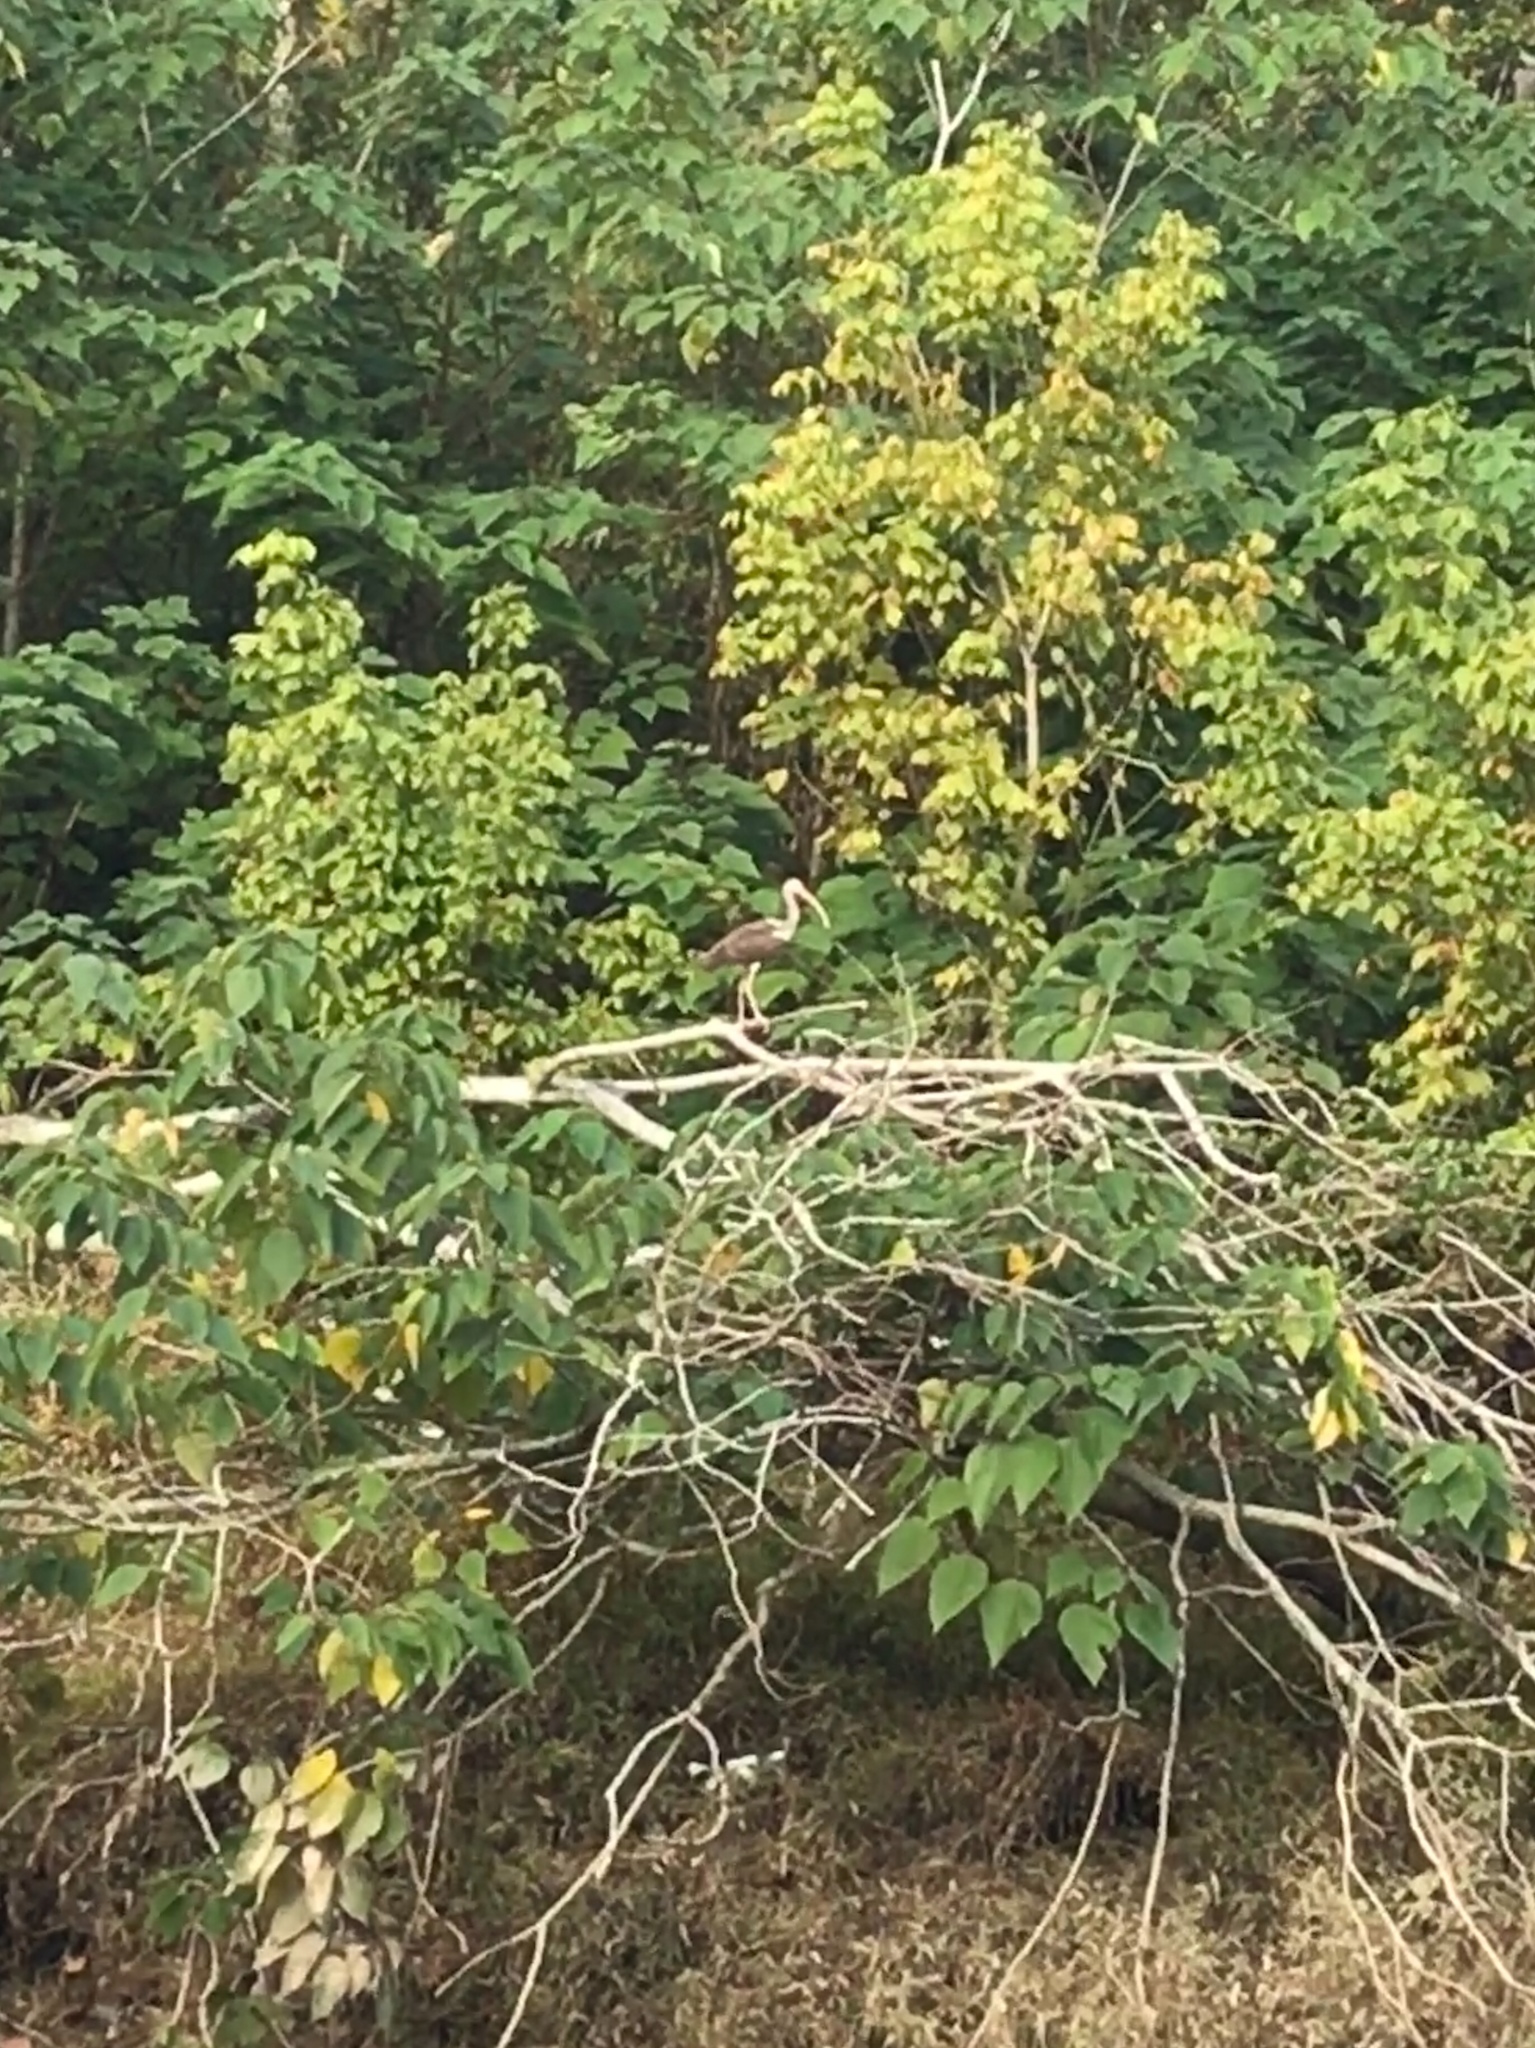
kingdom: Animalia
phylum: Chordata
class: Aves
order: Pelecaniformes
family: Threskiornithidae
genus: Eudocimus
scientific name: Eudocimus albus
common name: White ibis
